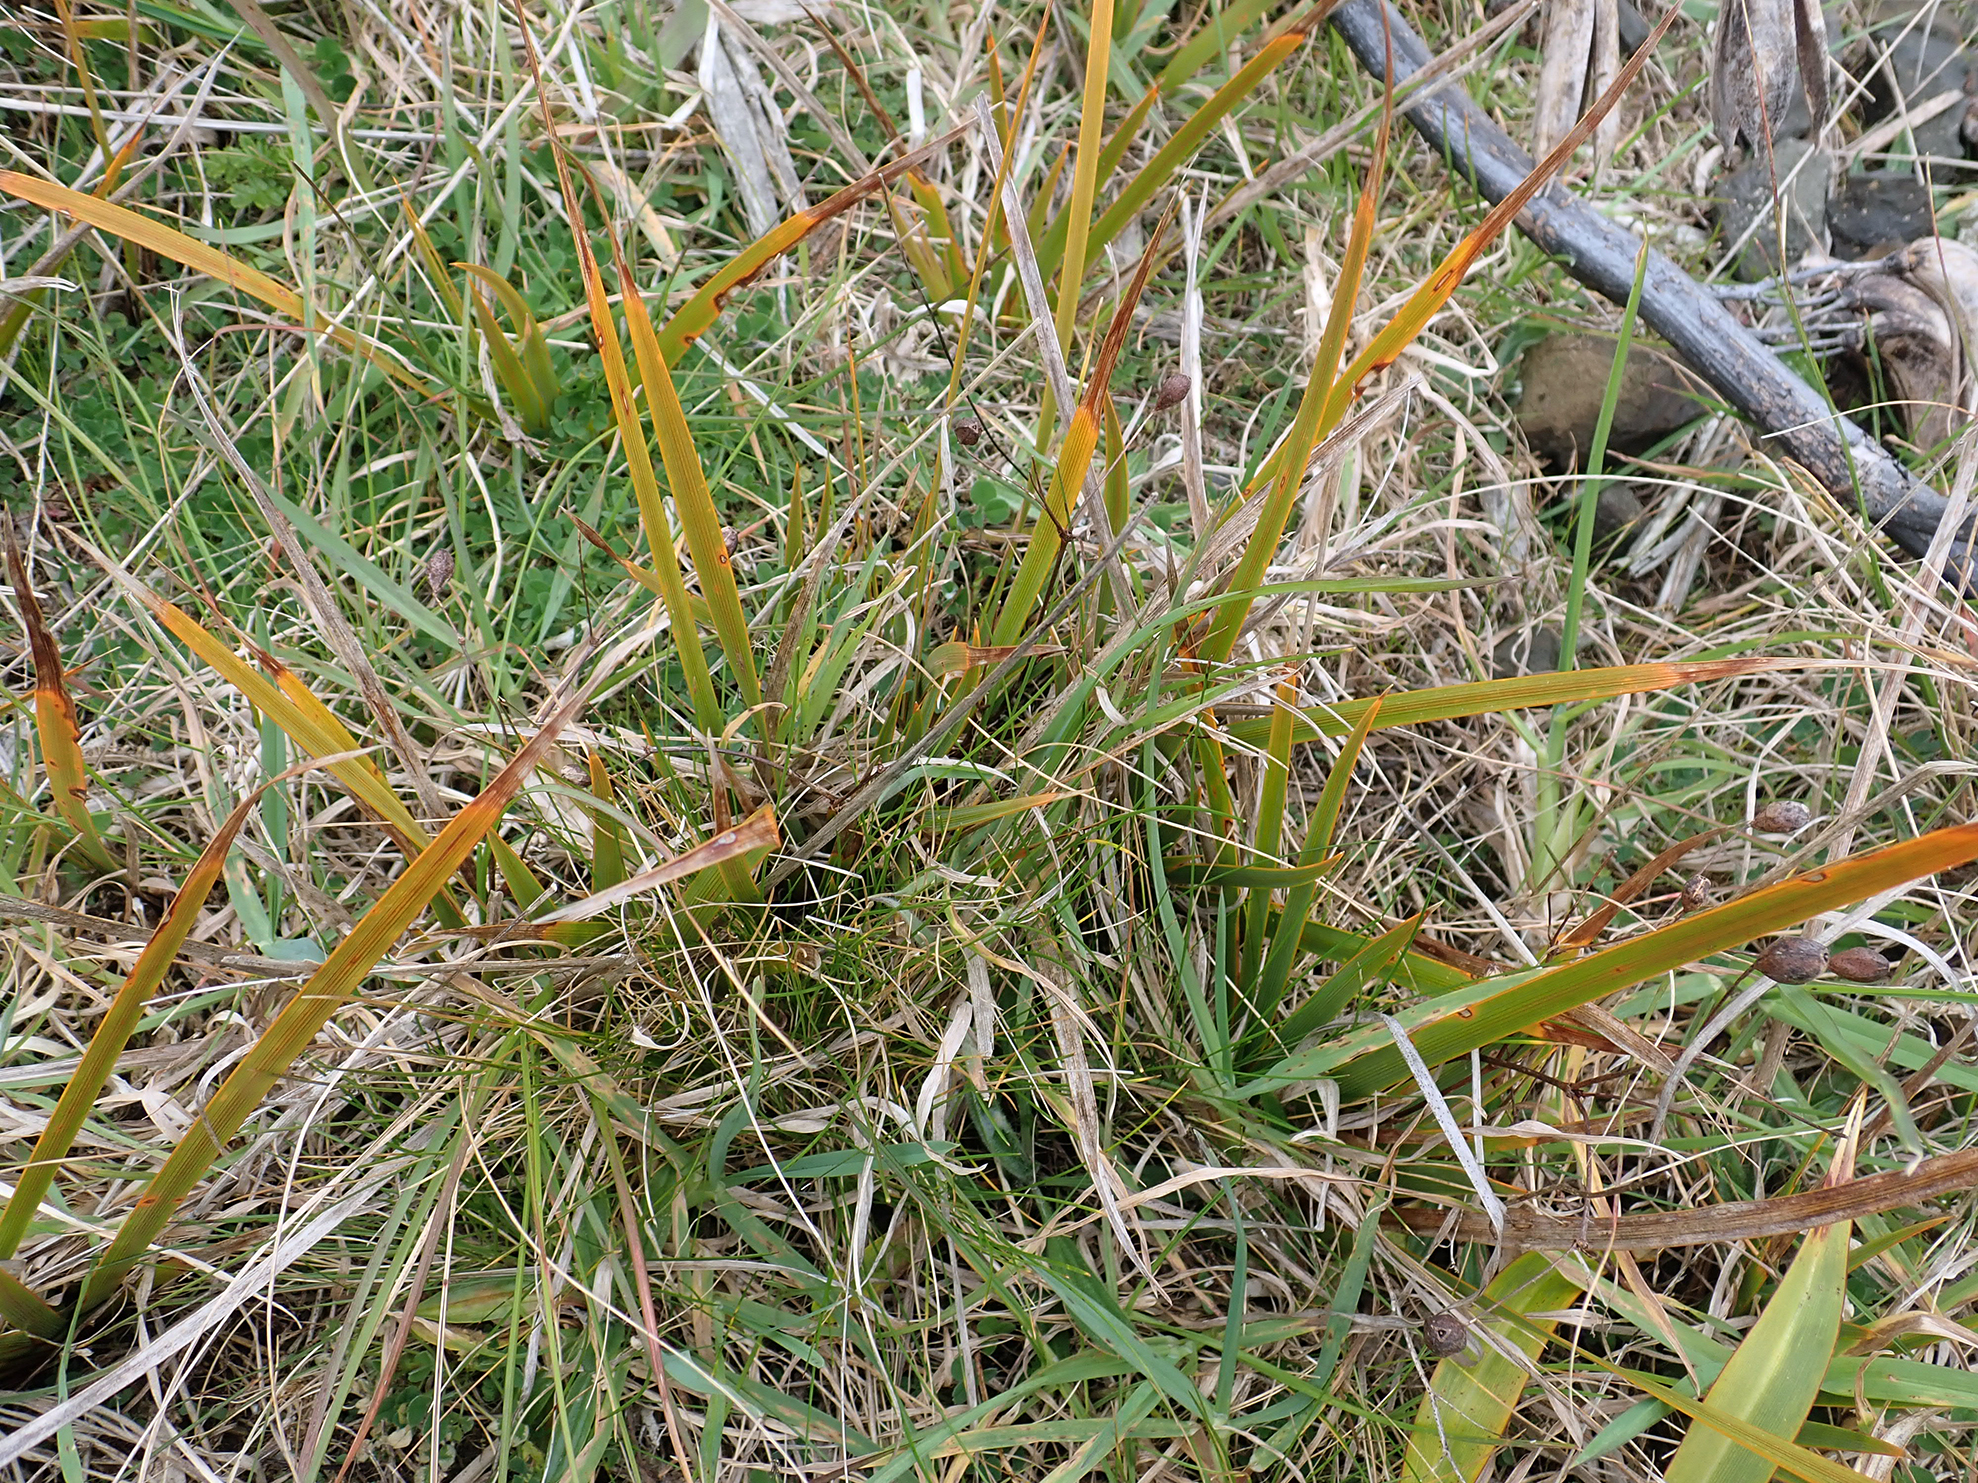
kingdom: Plantae
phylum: Tracheophyta
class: Liliopsida
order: Asparagales
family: Iridaceae
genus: Libertia
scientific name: Libertia peregrinans
